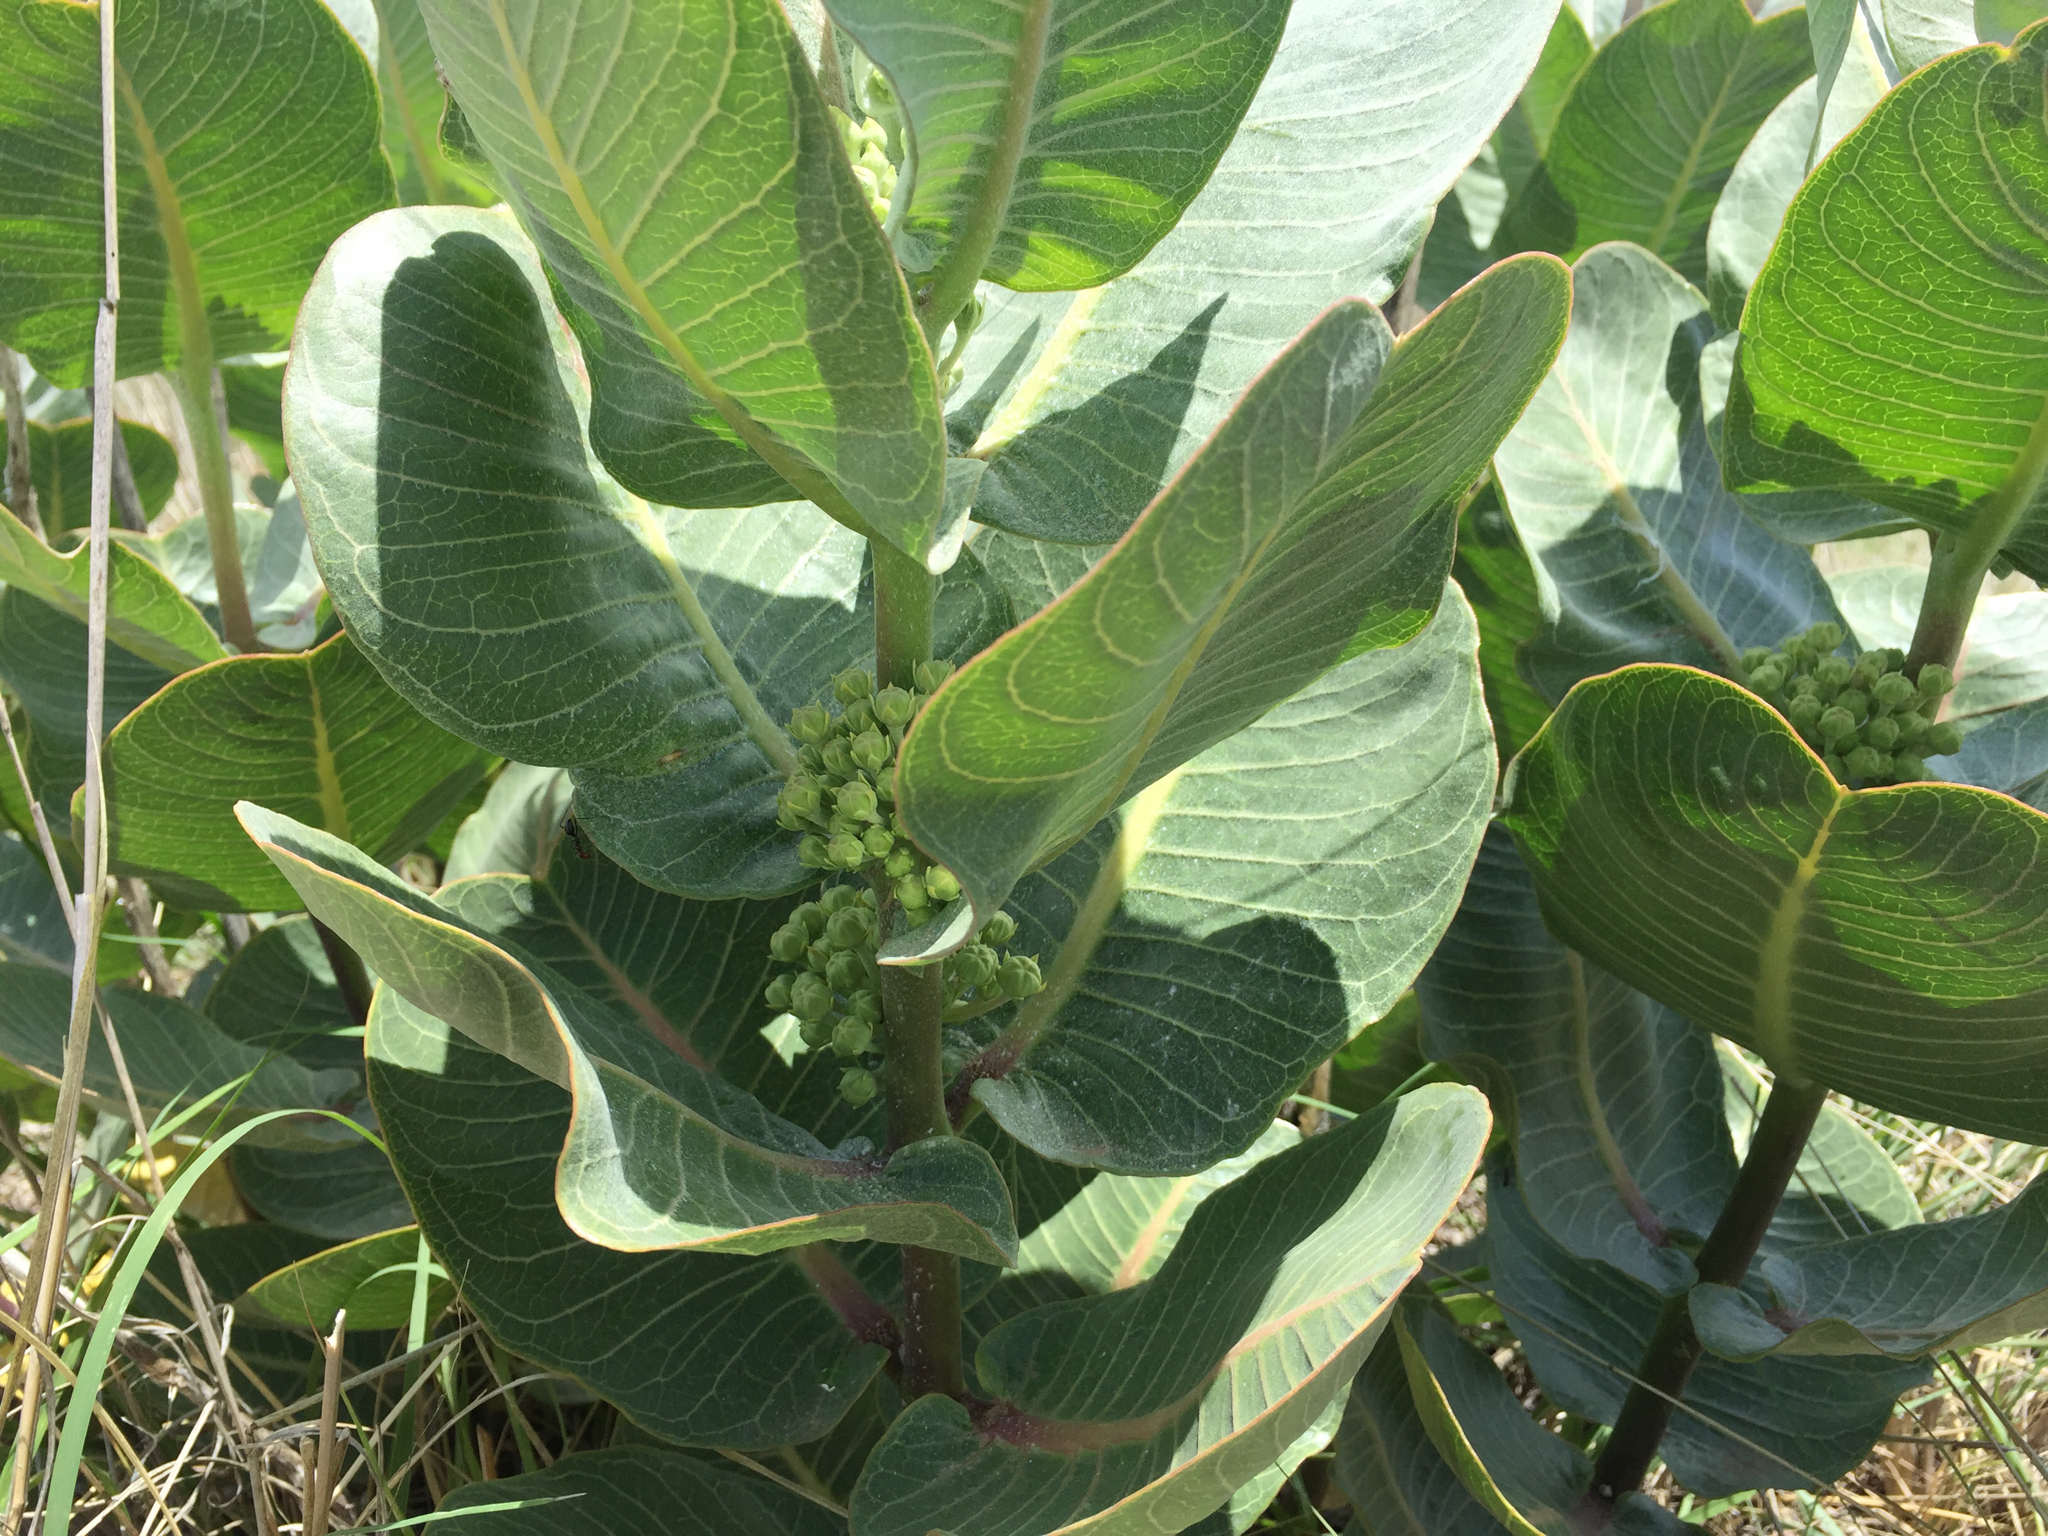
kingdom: Plantae
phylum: Tracheophyta
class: Magnoliopsida
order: Gentianales
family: Apocynaceae
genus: Asclepias
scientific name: Asclepias latifolia
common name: Broadleaf milkweed
